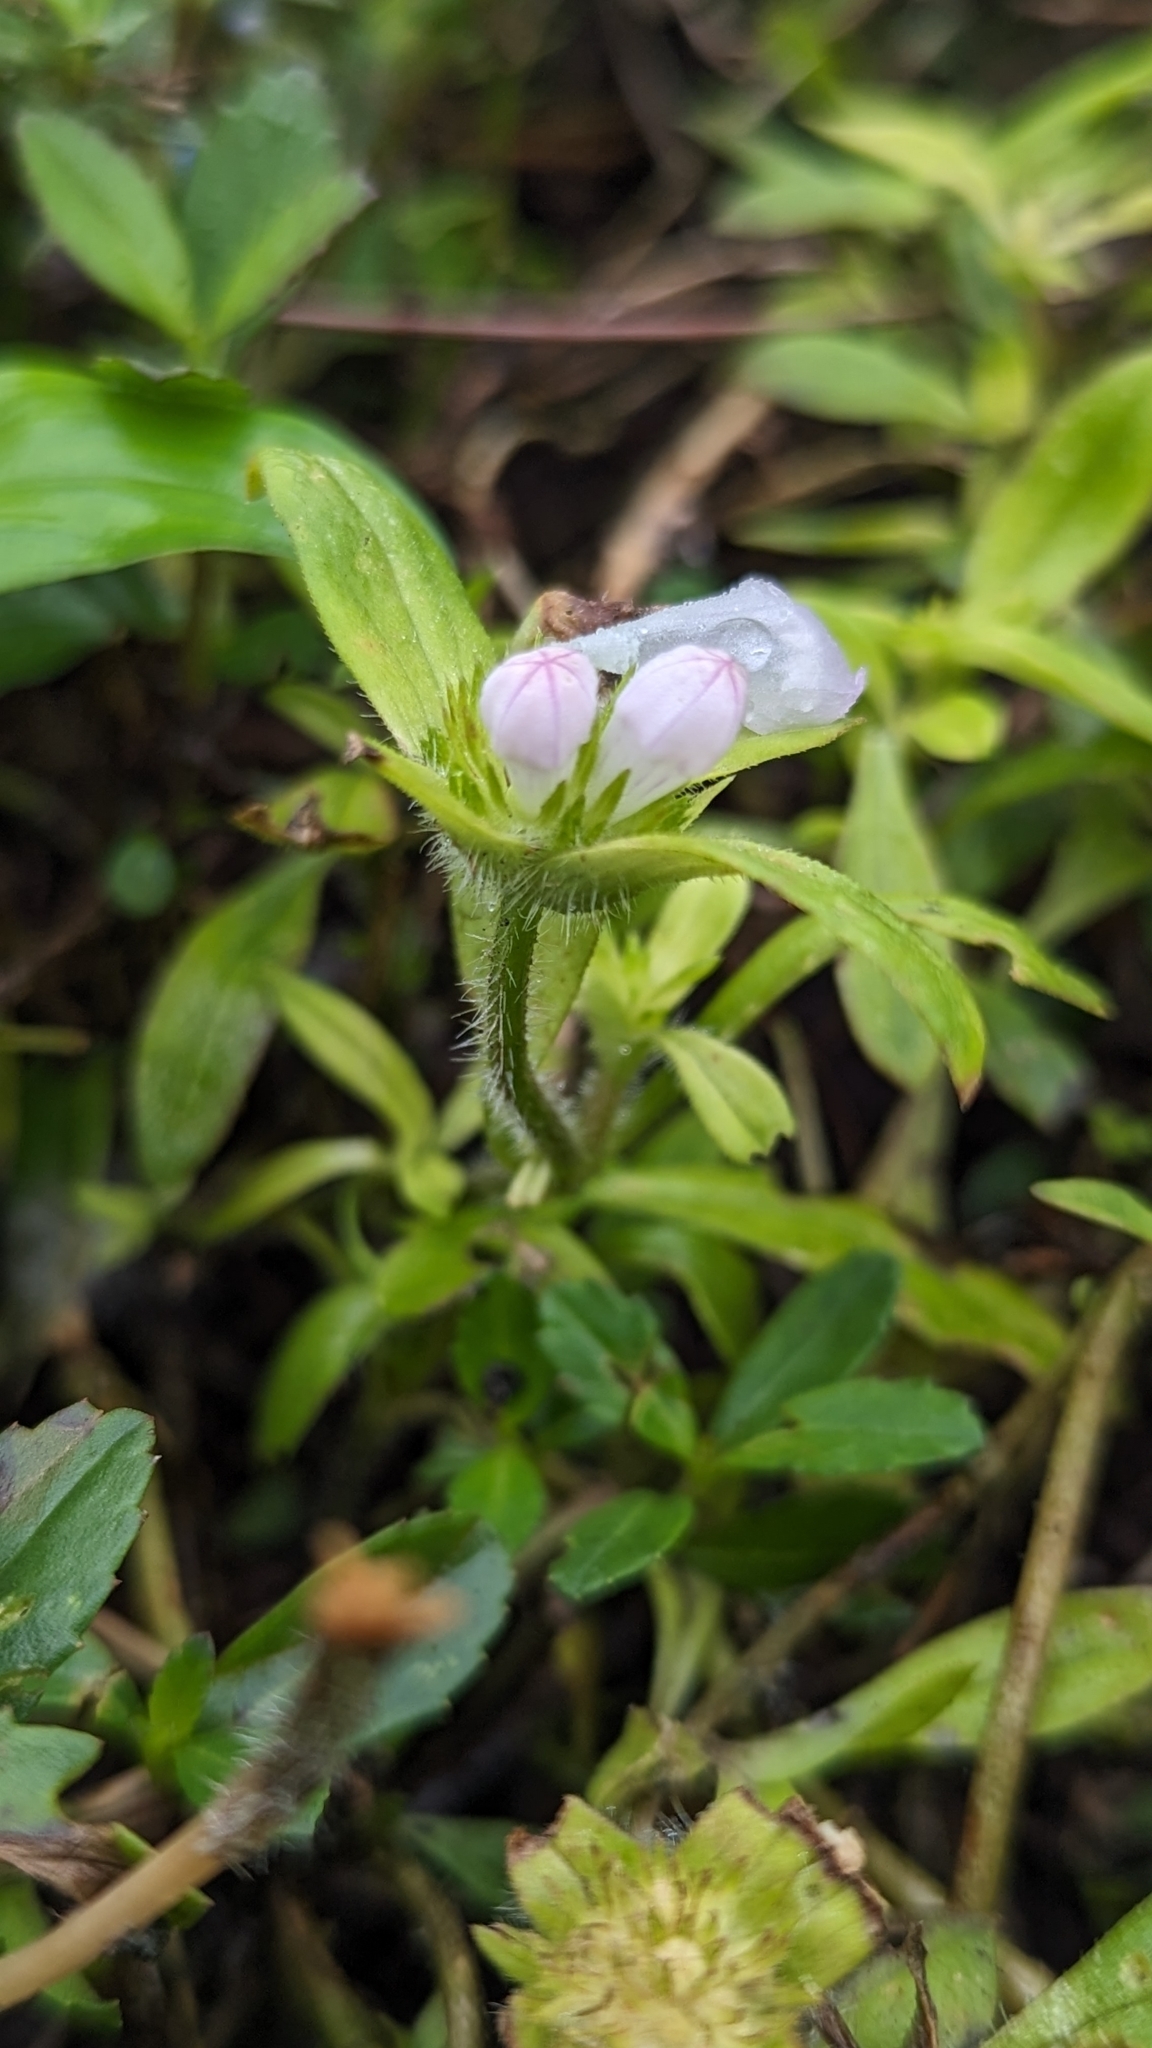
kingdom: Plantae
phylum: Tracheophyta
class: Magnoliopsida
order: Gentianales
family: Rubiaceae
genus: Richardia
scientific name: Richardia grandiflora
